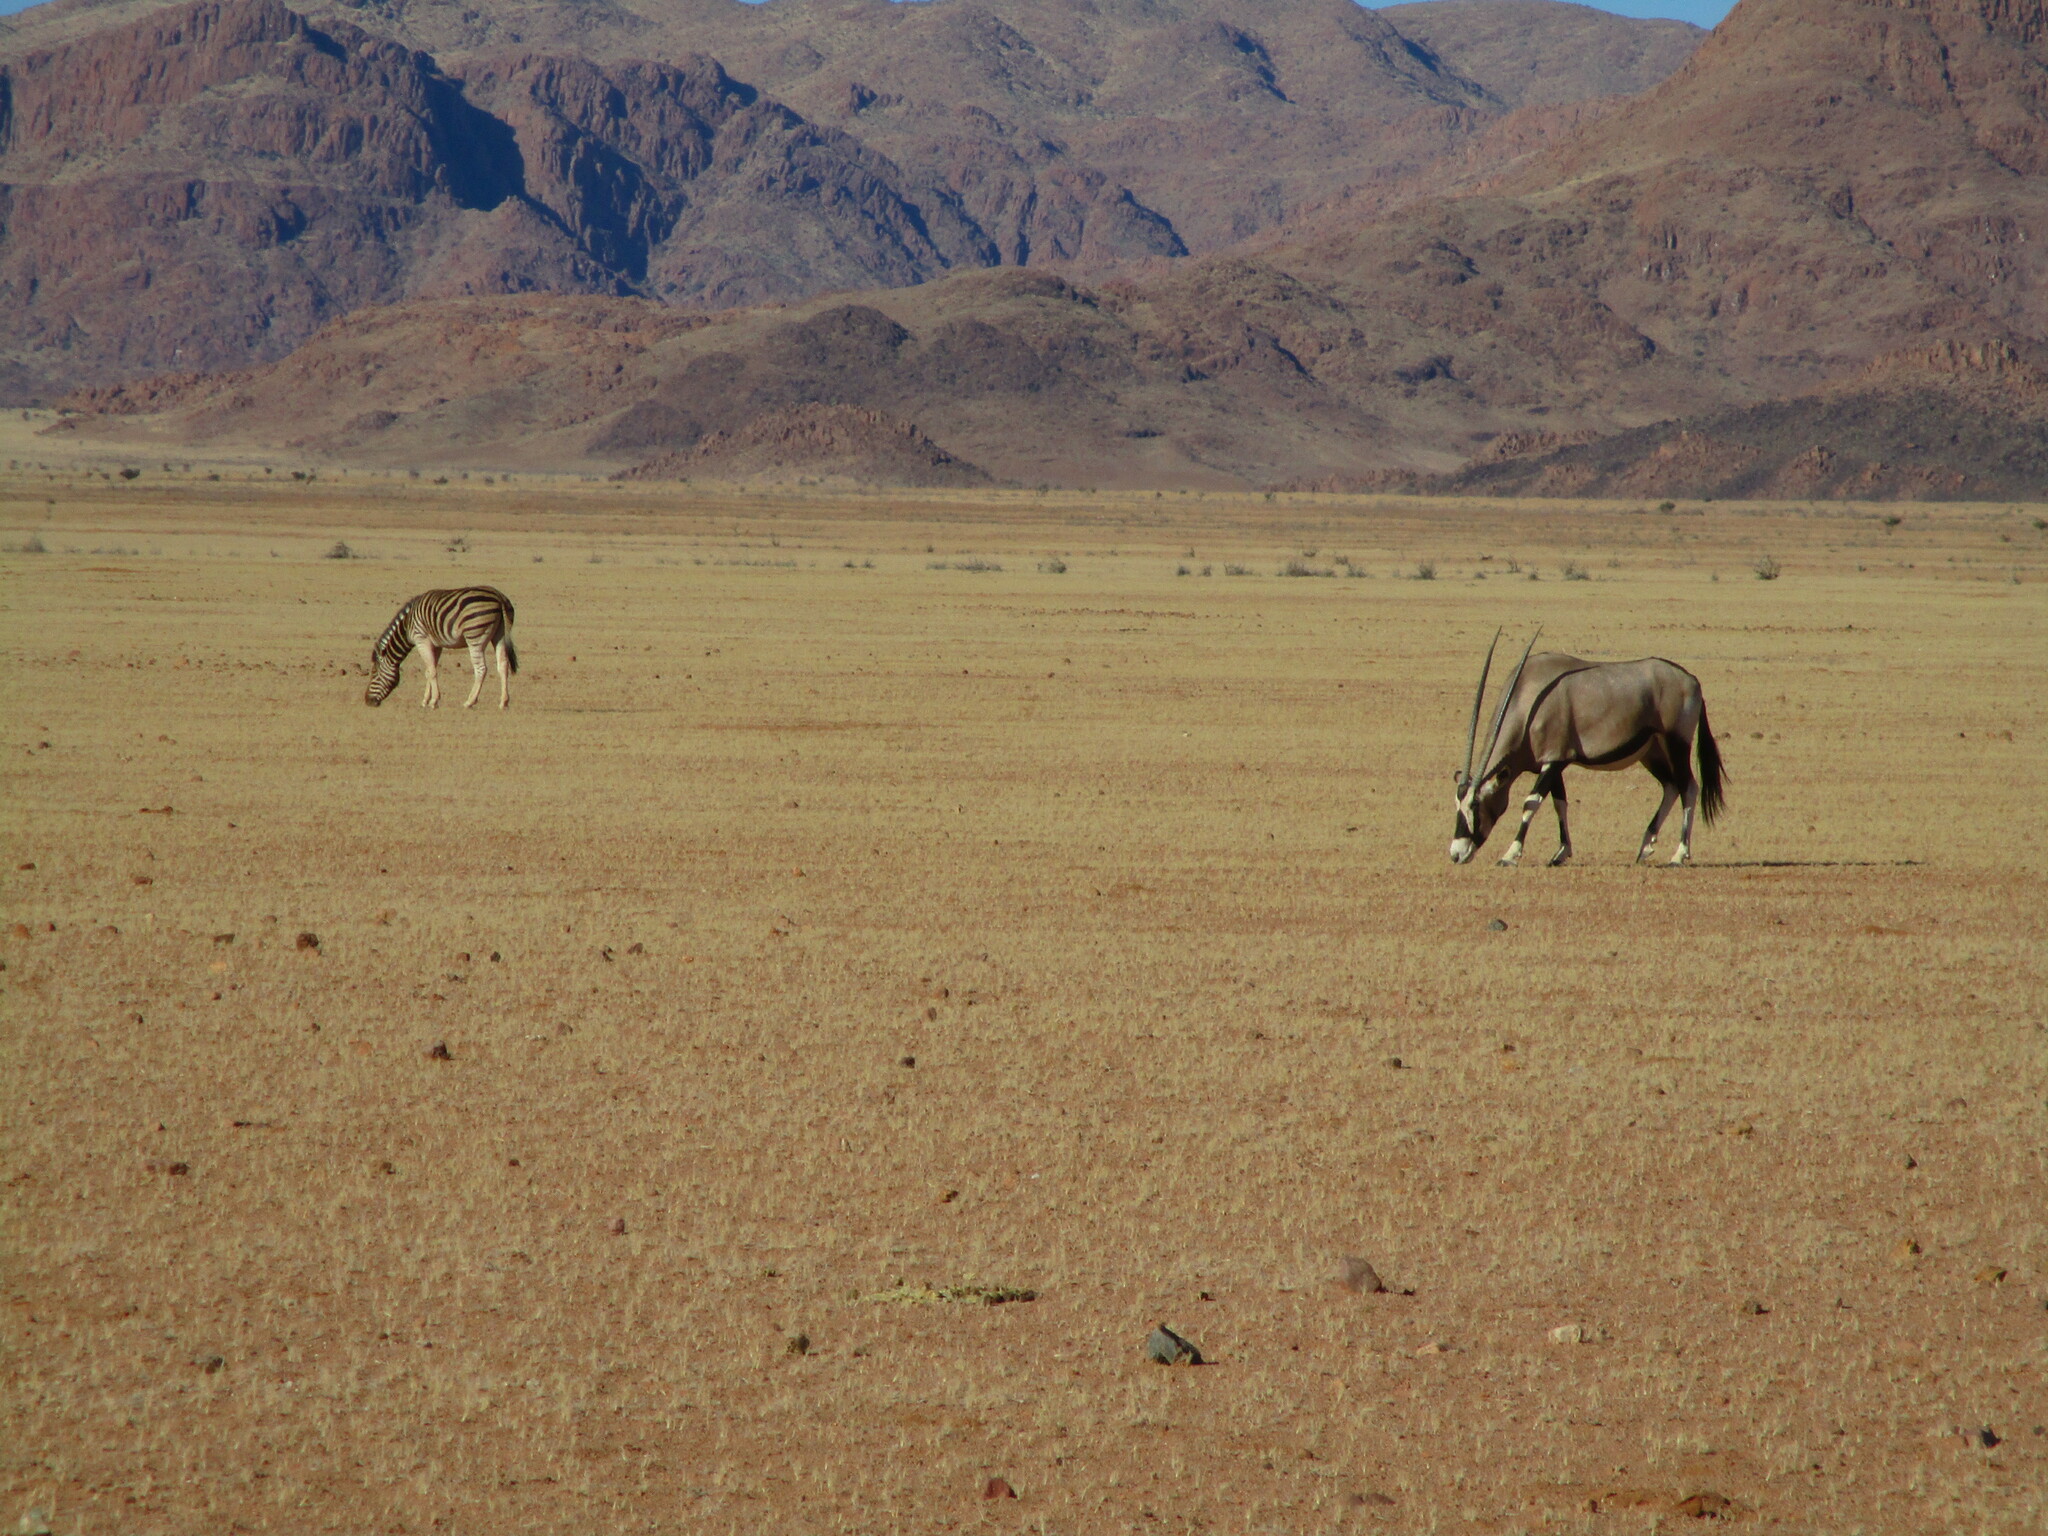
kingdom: Animalia
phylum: Chordata
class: Mammalia
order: Perissodactyla
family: Equidae
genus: Equus
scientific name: Equus quagga
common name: Plains zebra
